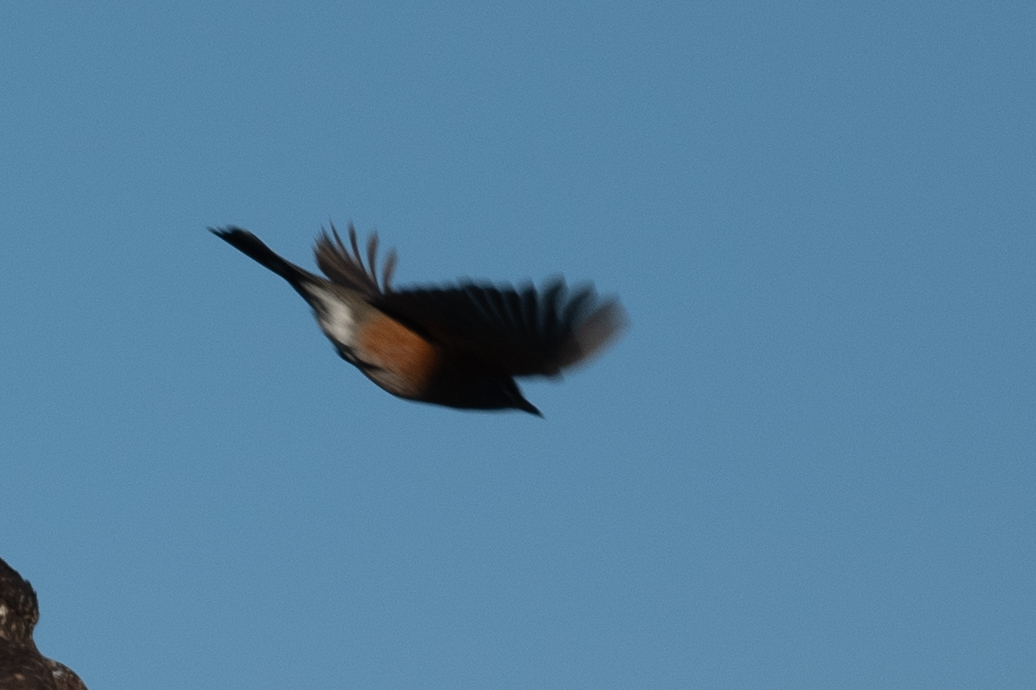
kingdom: Animalia
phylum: Chordata
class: Aves
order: Passeriformes
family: Turdidae
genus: Sialia
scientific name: Sialia mexicana
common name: Western bluebird
